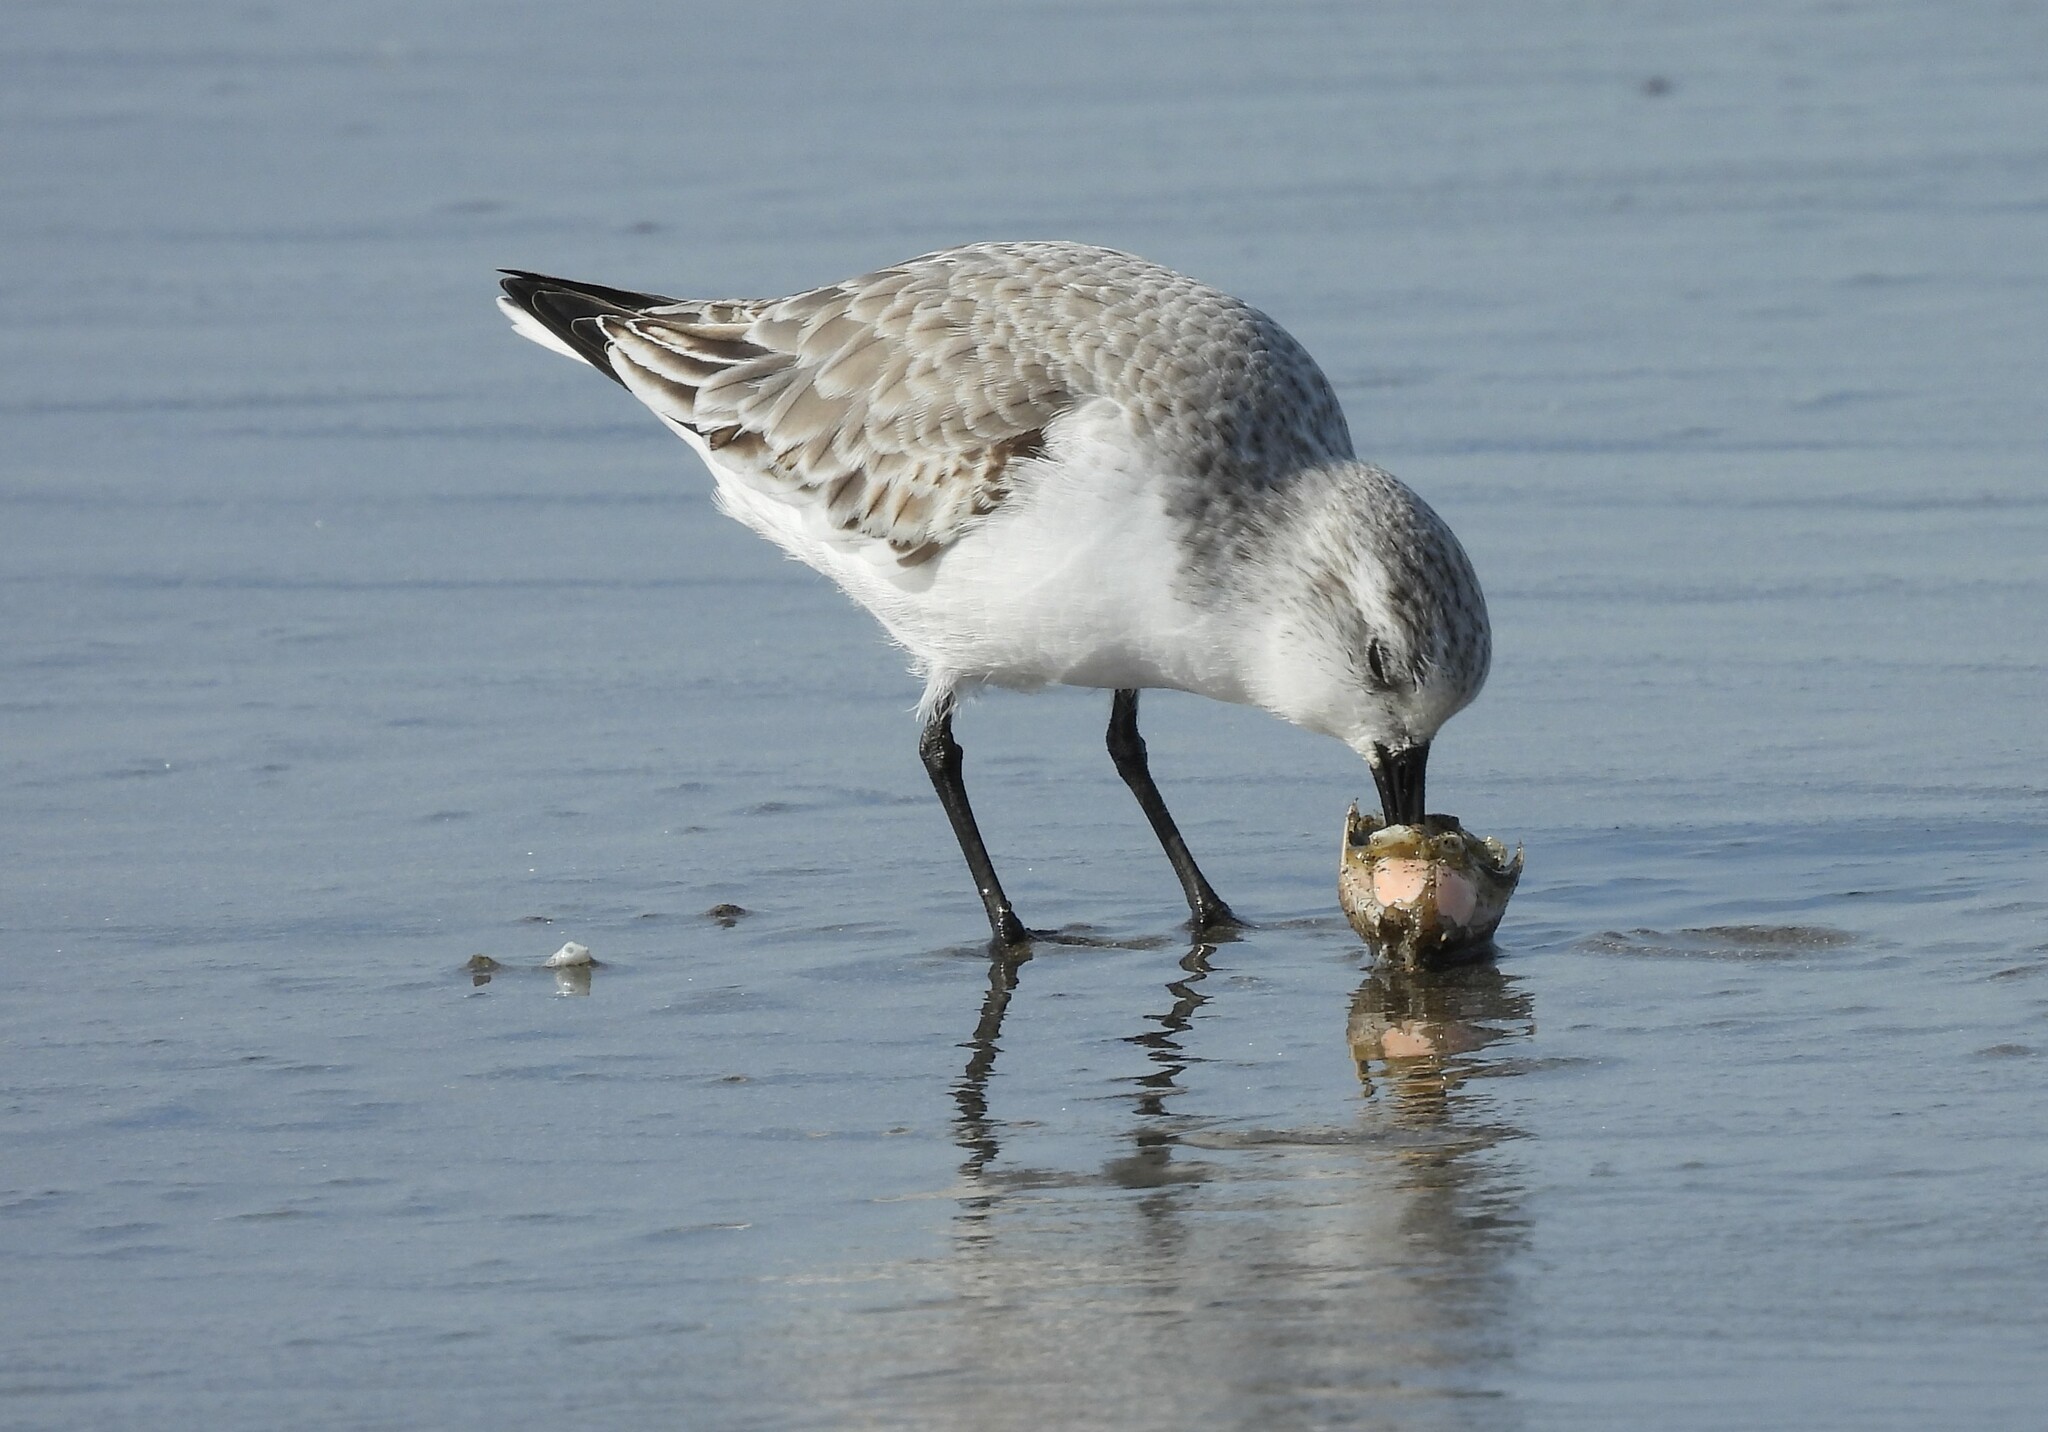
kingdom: Animalia
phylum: Chordata
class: Aves
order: Charadriiformes
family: Scolopacidae
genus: Calidris
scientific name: Calidris alba
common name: Sanderling
